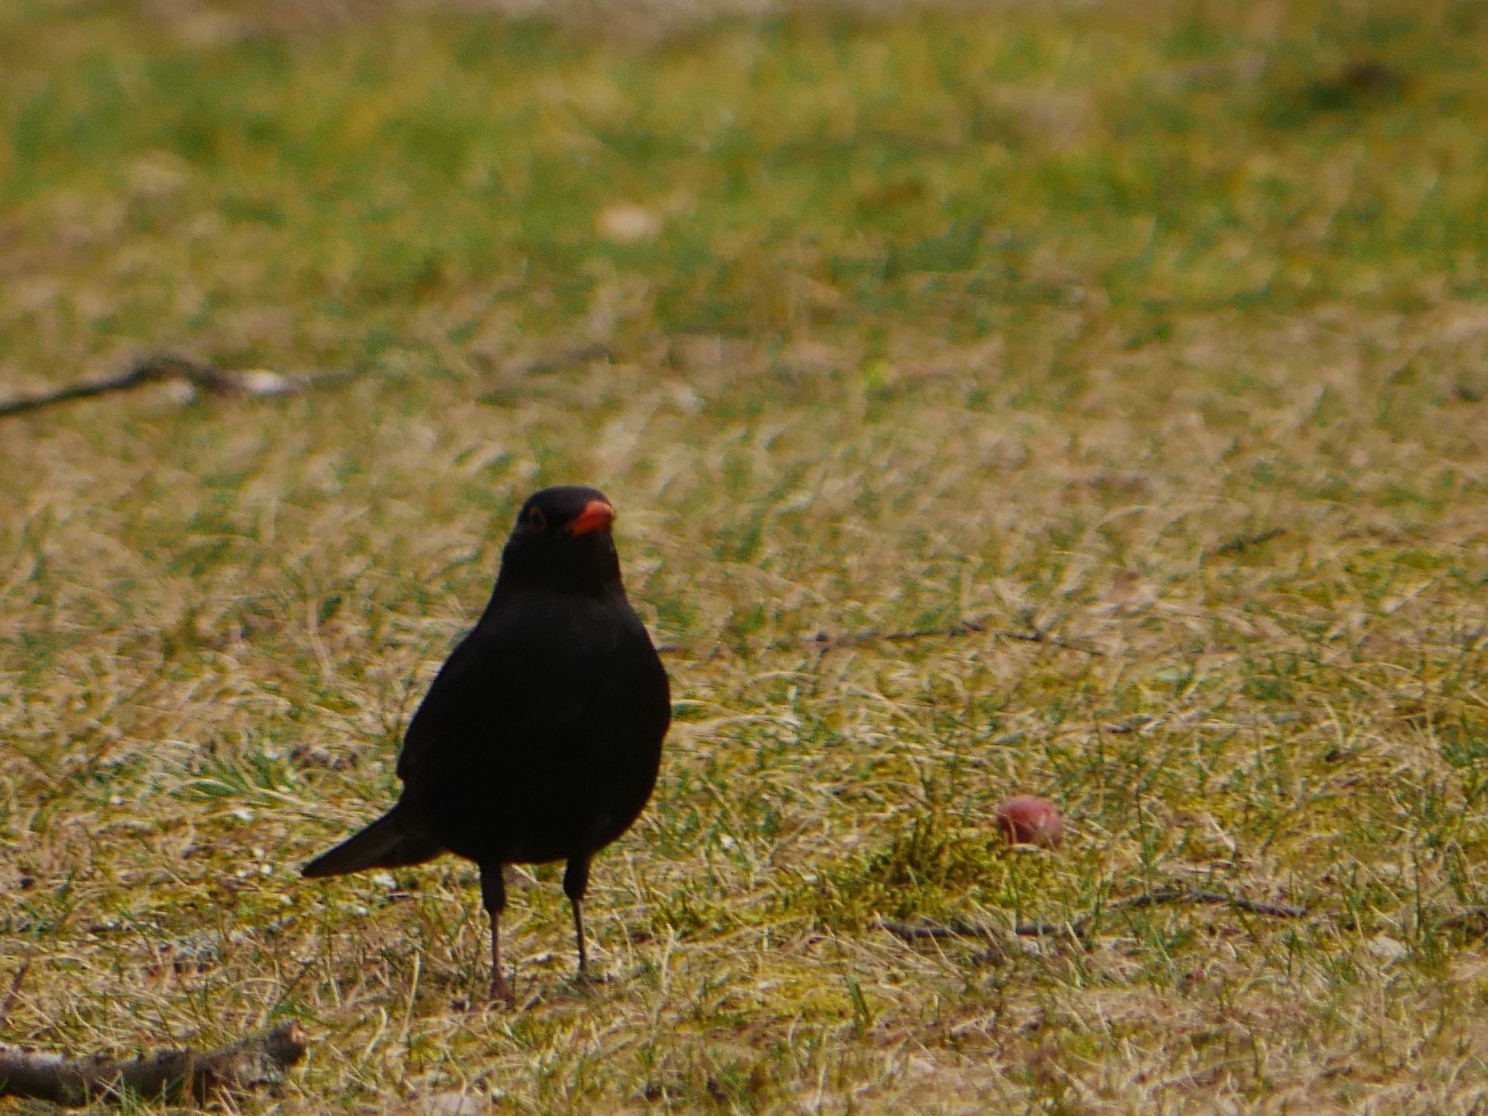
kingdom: Animalia
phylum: Chordata
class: Aves
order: Passeriformes
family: Turdidae
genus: Turdus
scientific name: Turdus merula
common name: Common blackbird
